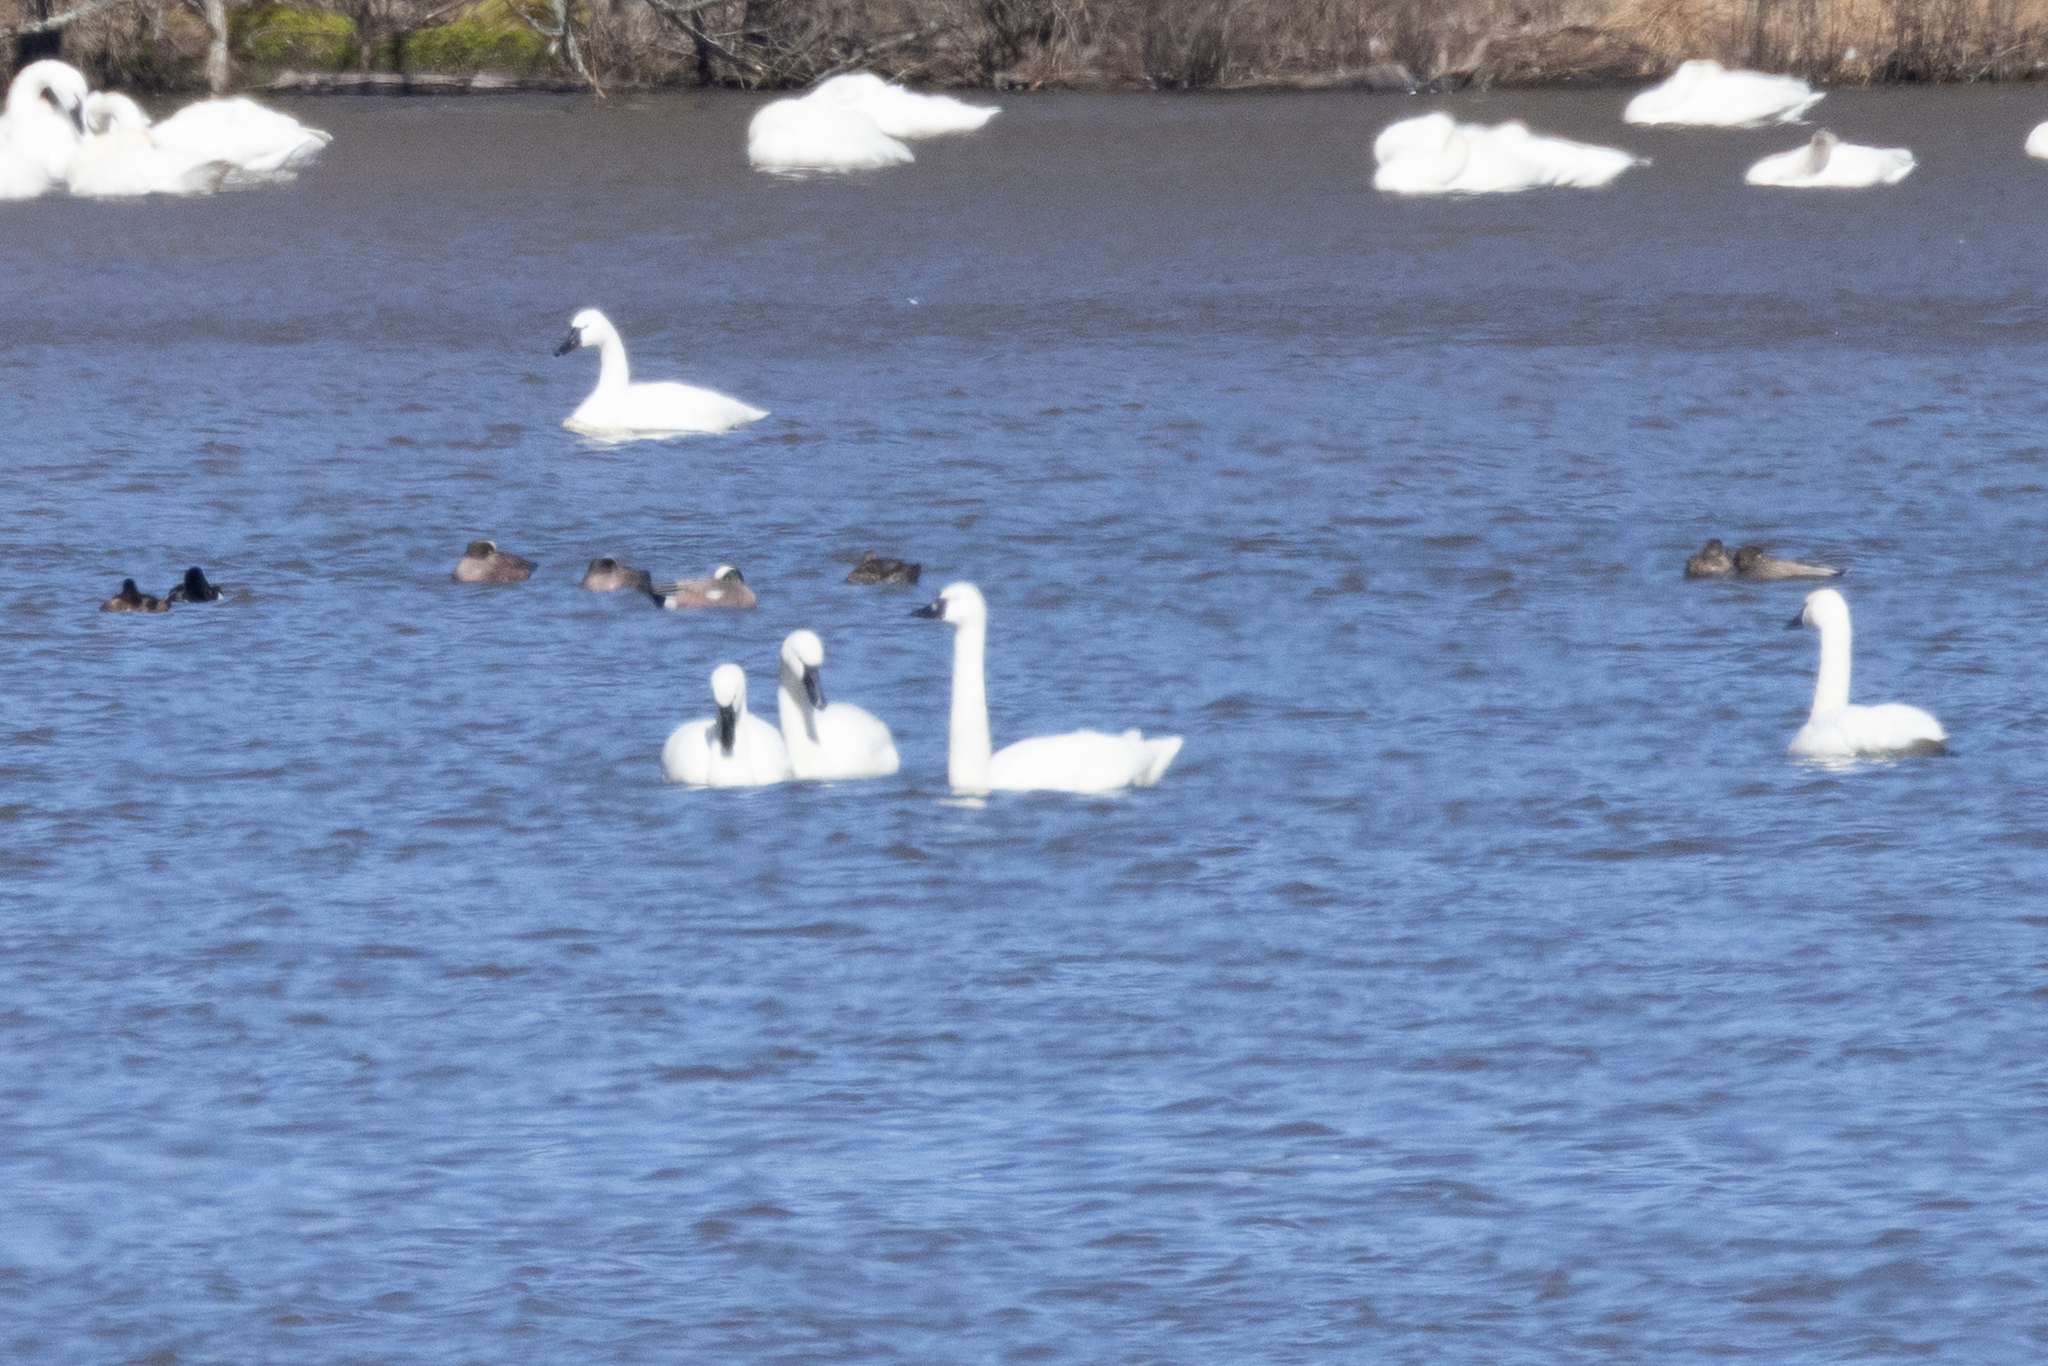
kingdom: Animalia
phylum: Chordata
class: Aves
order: Anseriformes
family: Anatidae
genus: Cygnus
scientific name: Cygnus columbianus
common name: Tundra swan
